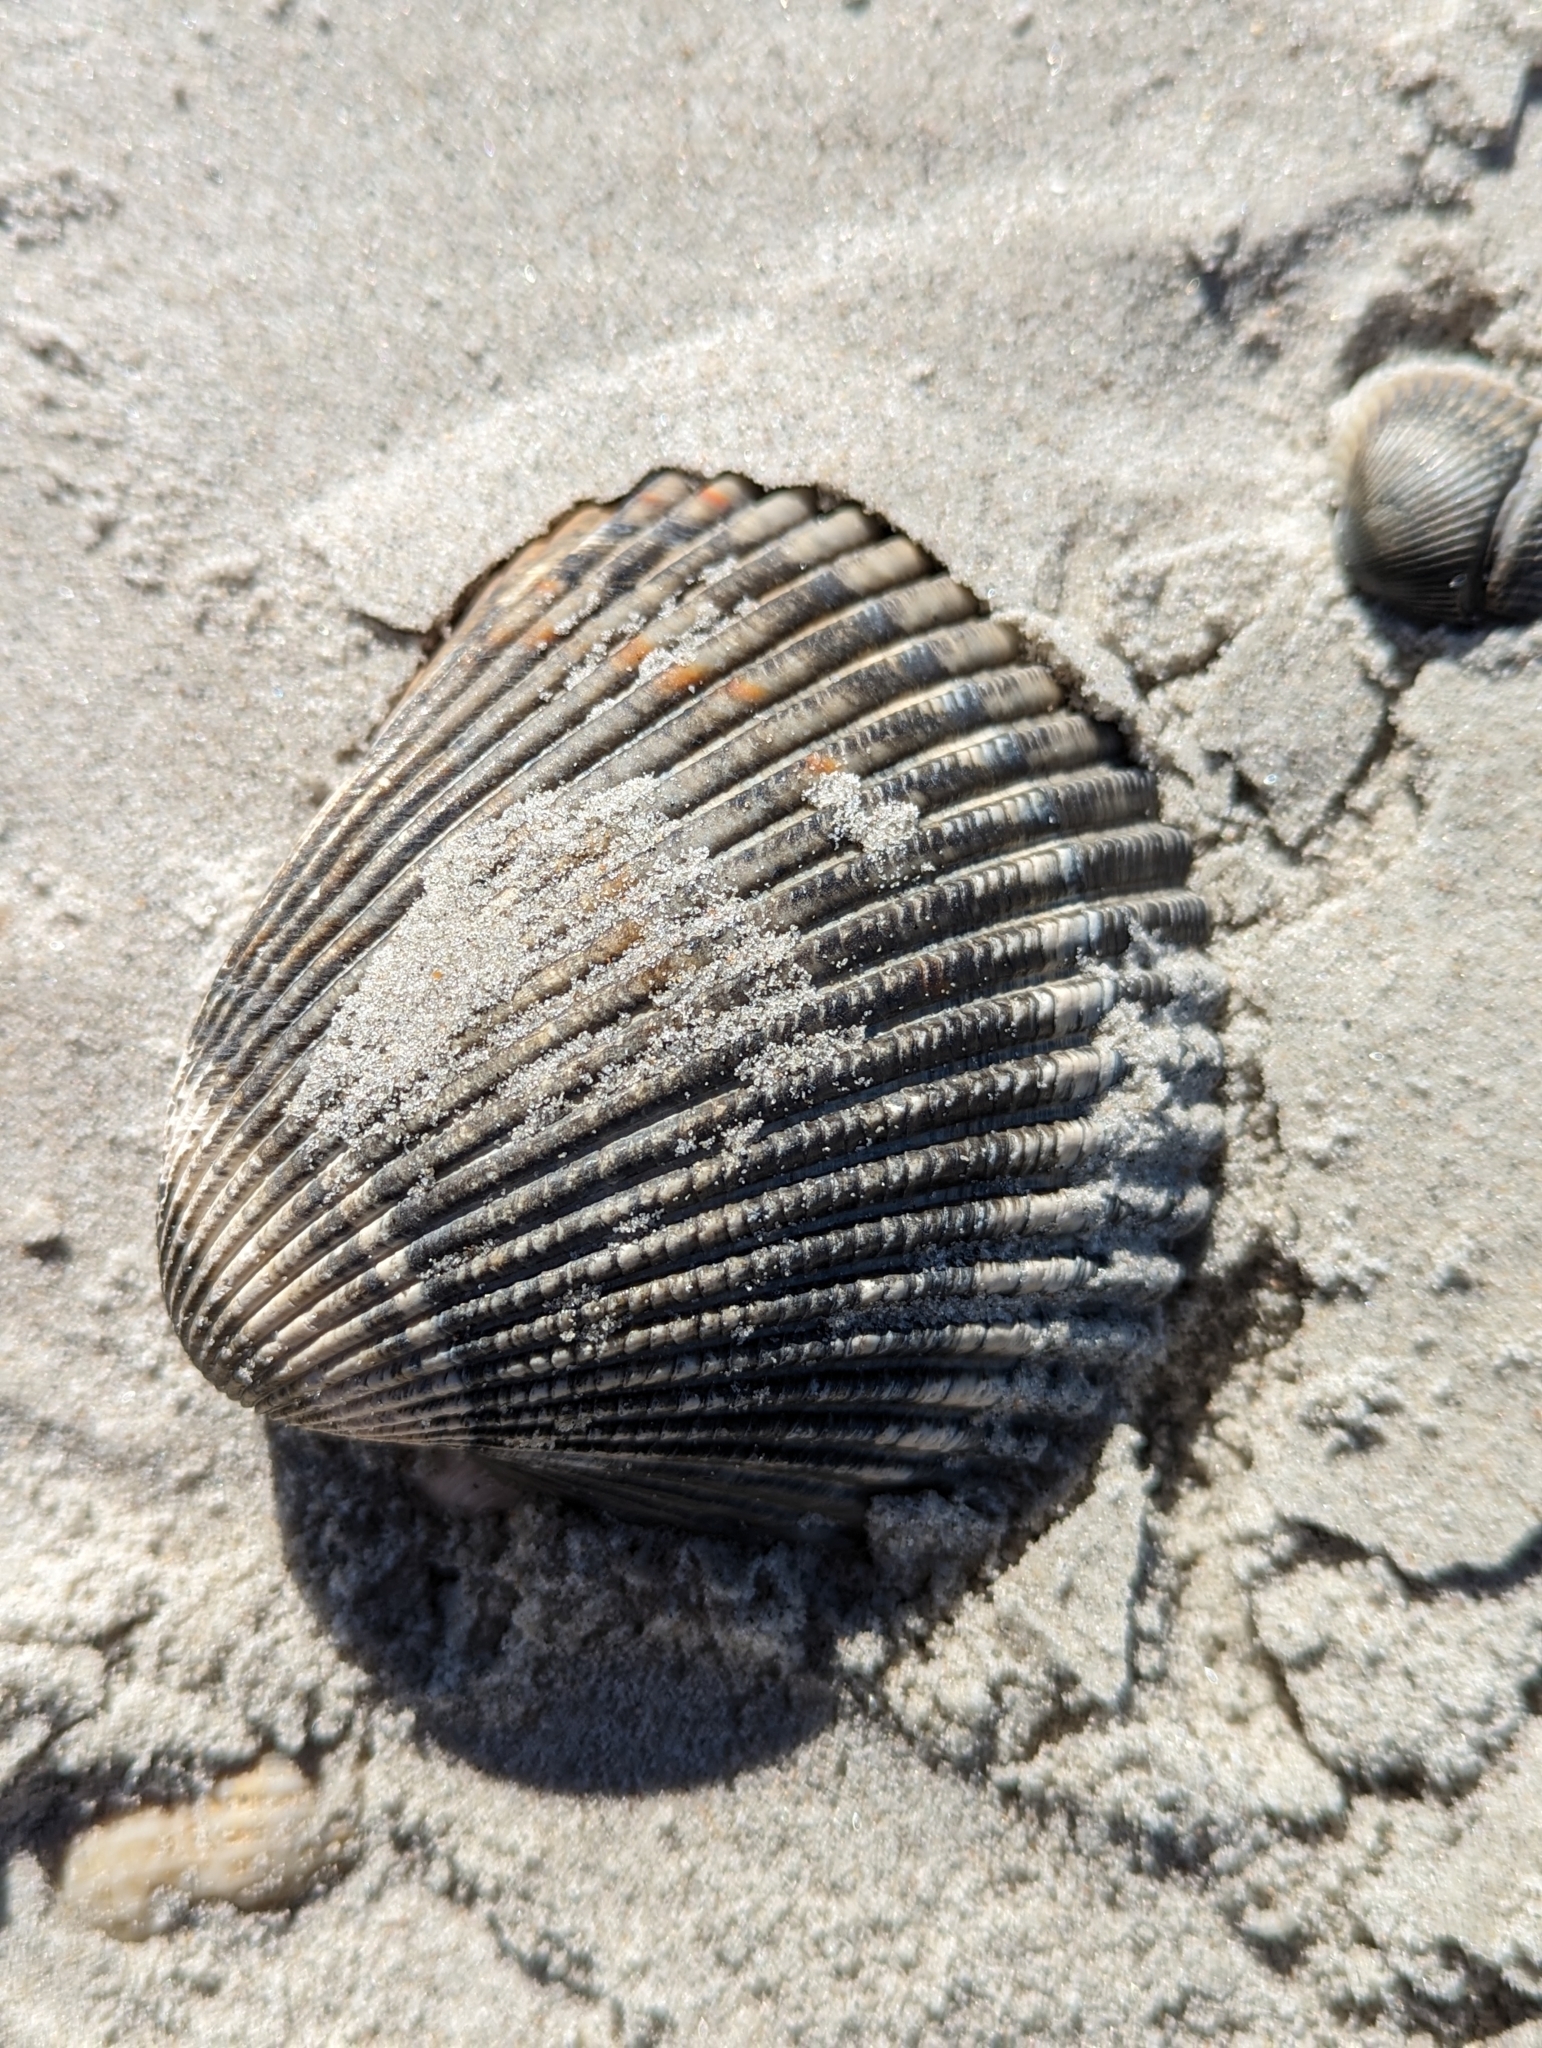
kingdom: Animalia
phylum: Mollusca
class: Bivalvia
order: Cardiida
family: Cardiidae
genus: Dinocardium
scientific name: Dinocardium robustum
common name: Atlantic giant cockle
